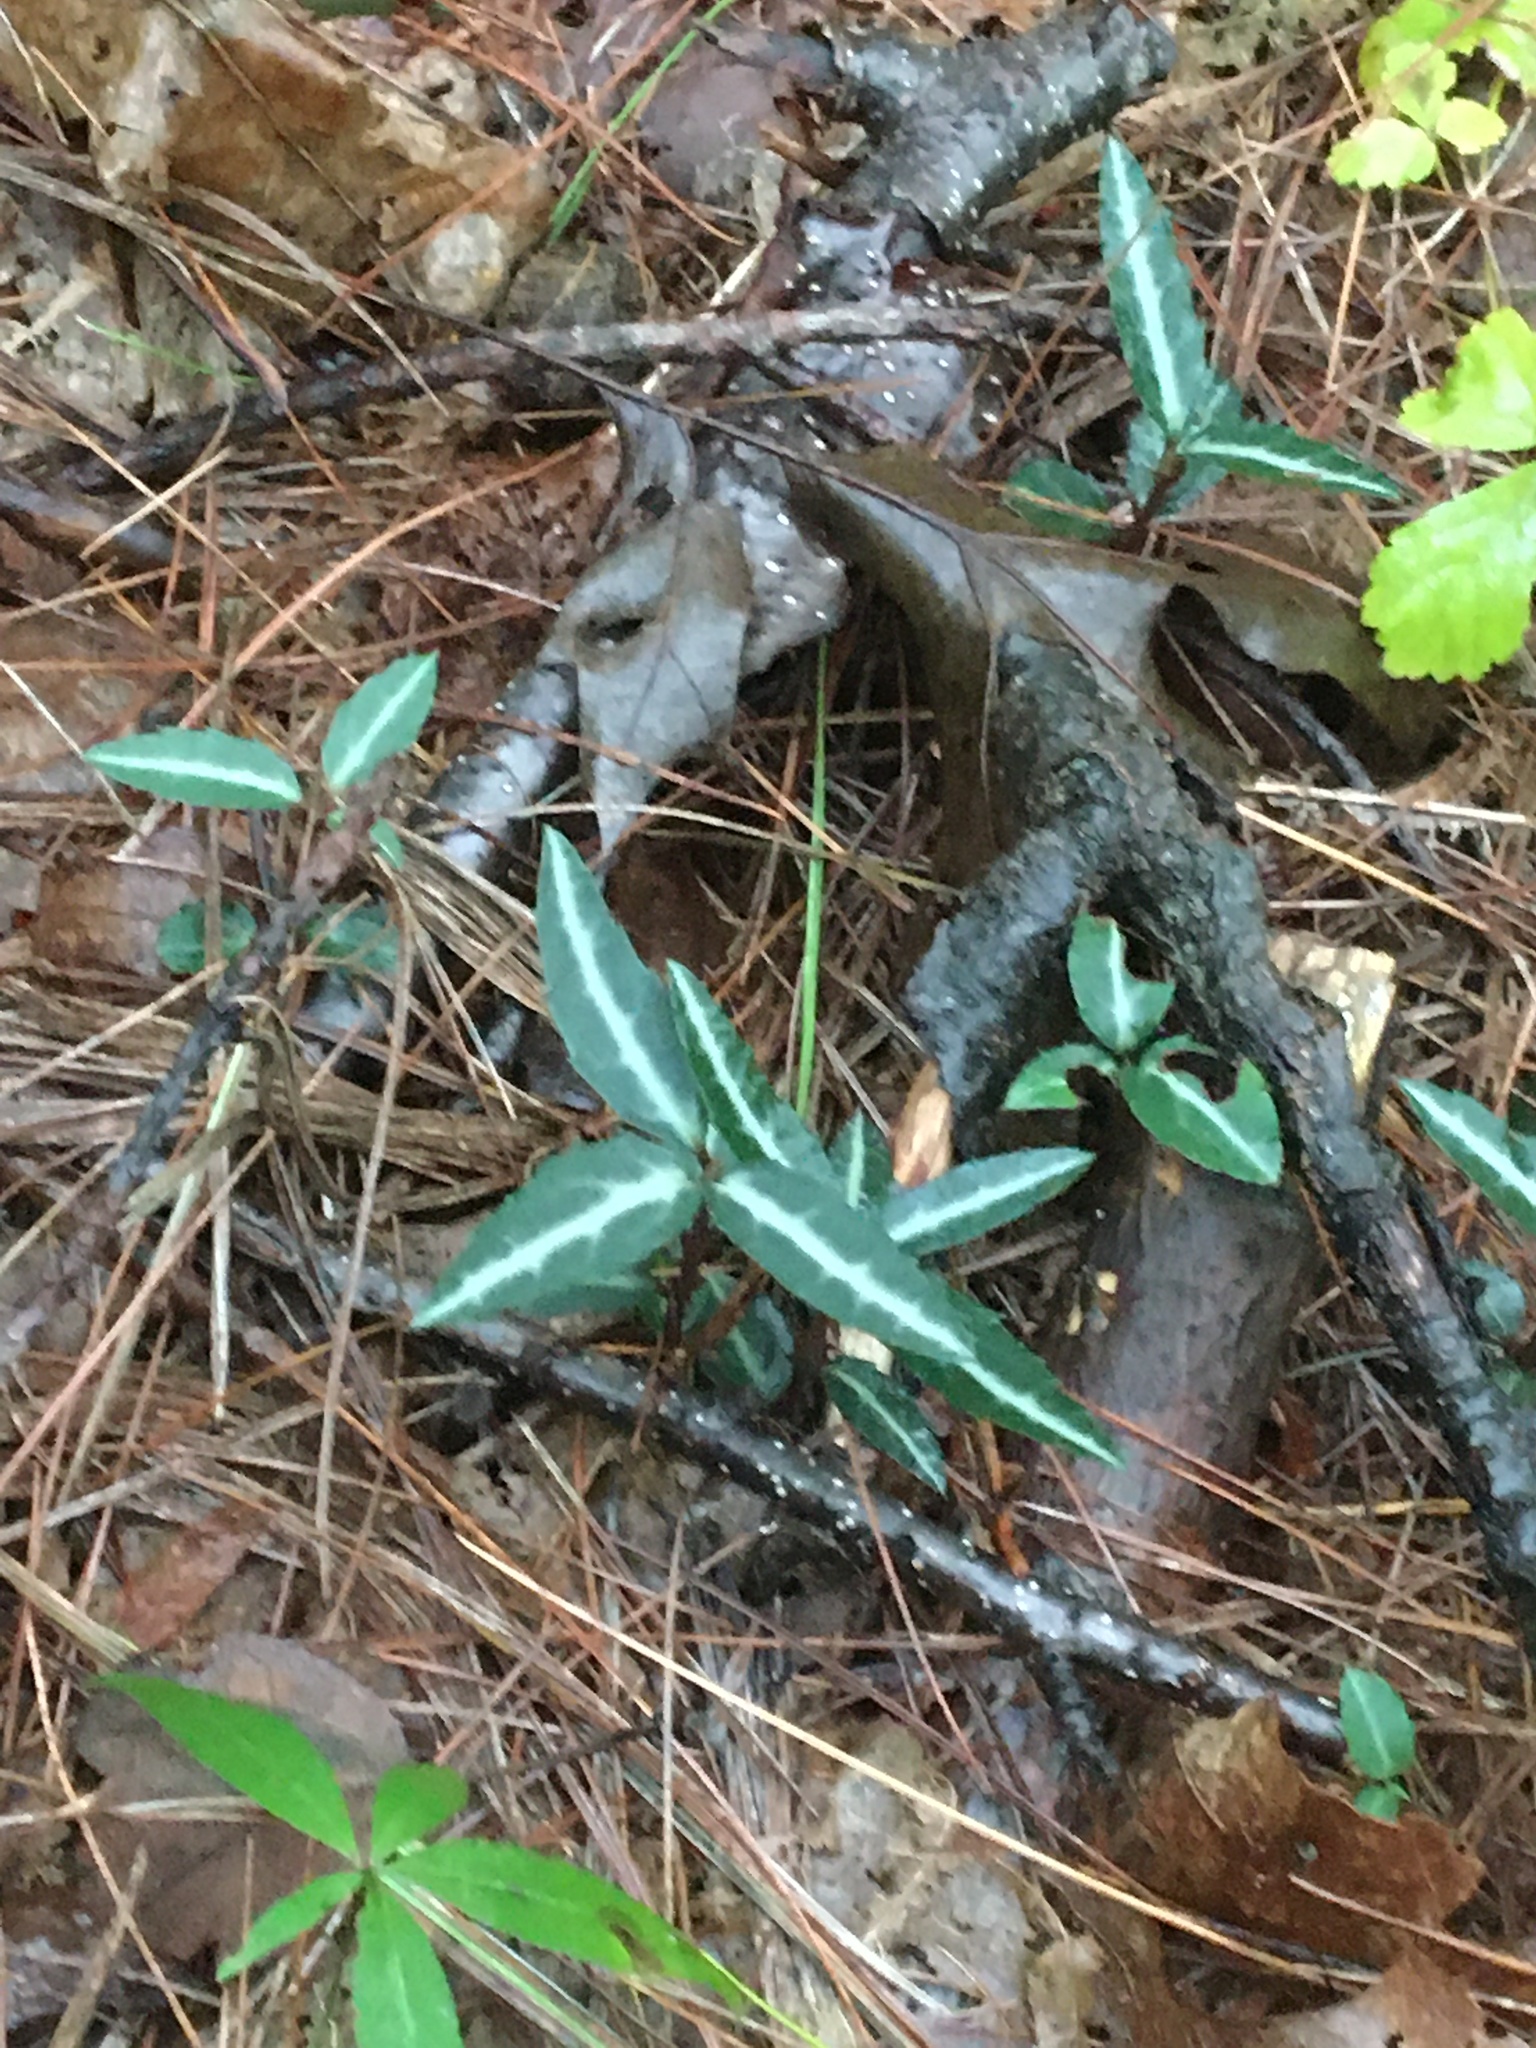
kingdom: Plantae
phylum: Tracheophyta
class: Magnoliopsida
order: Ericales
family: Ericaceae
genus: Chimaphila
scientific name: Chimaphila maculata
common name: Spotted pipsissewa
